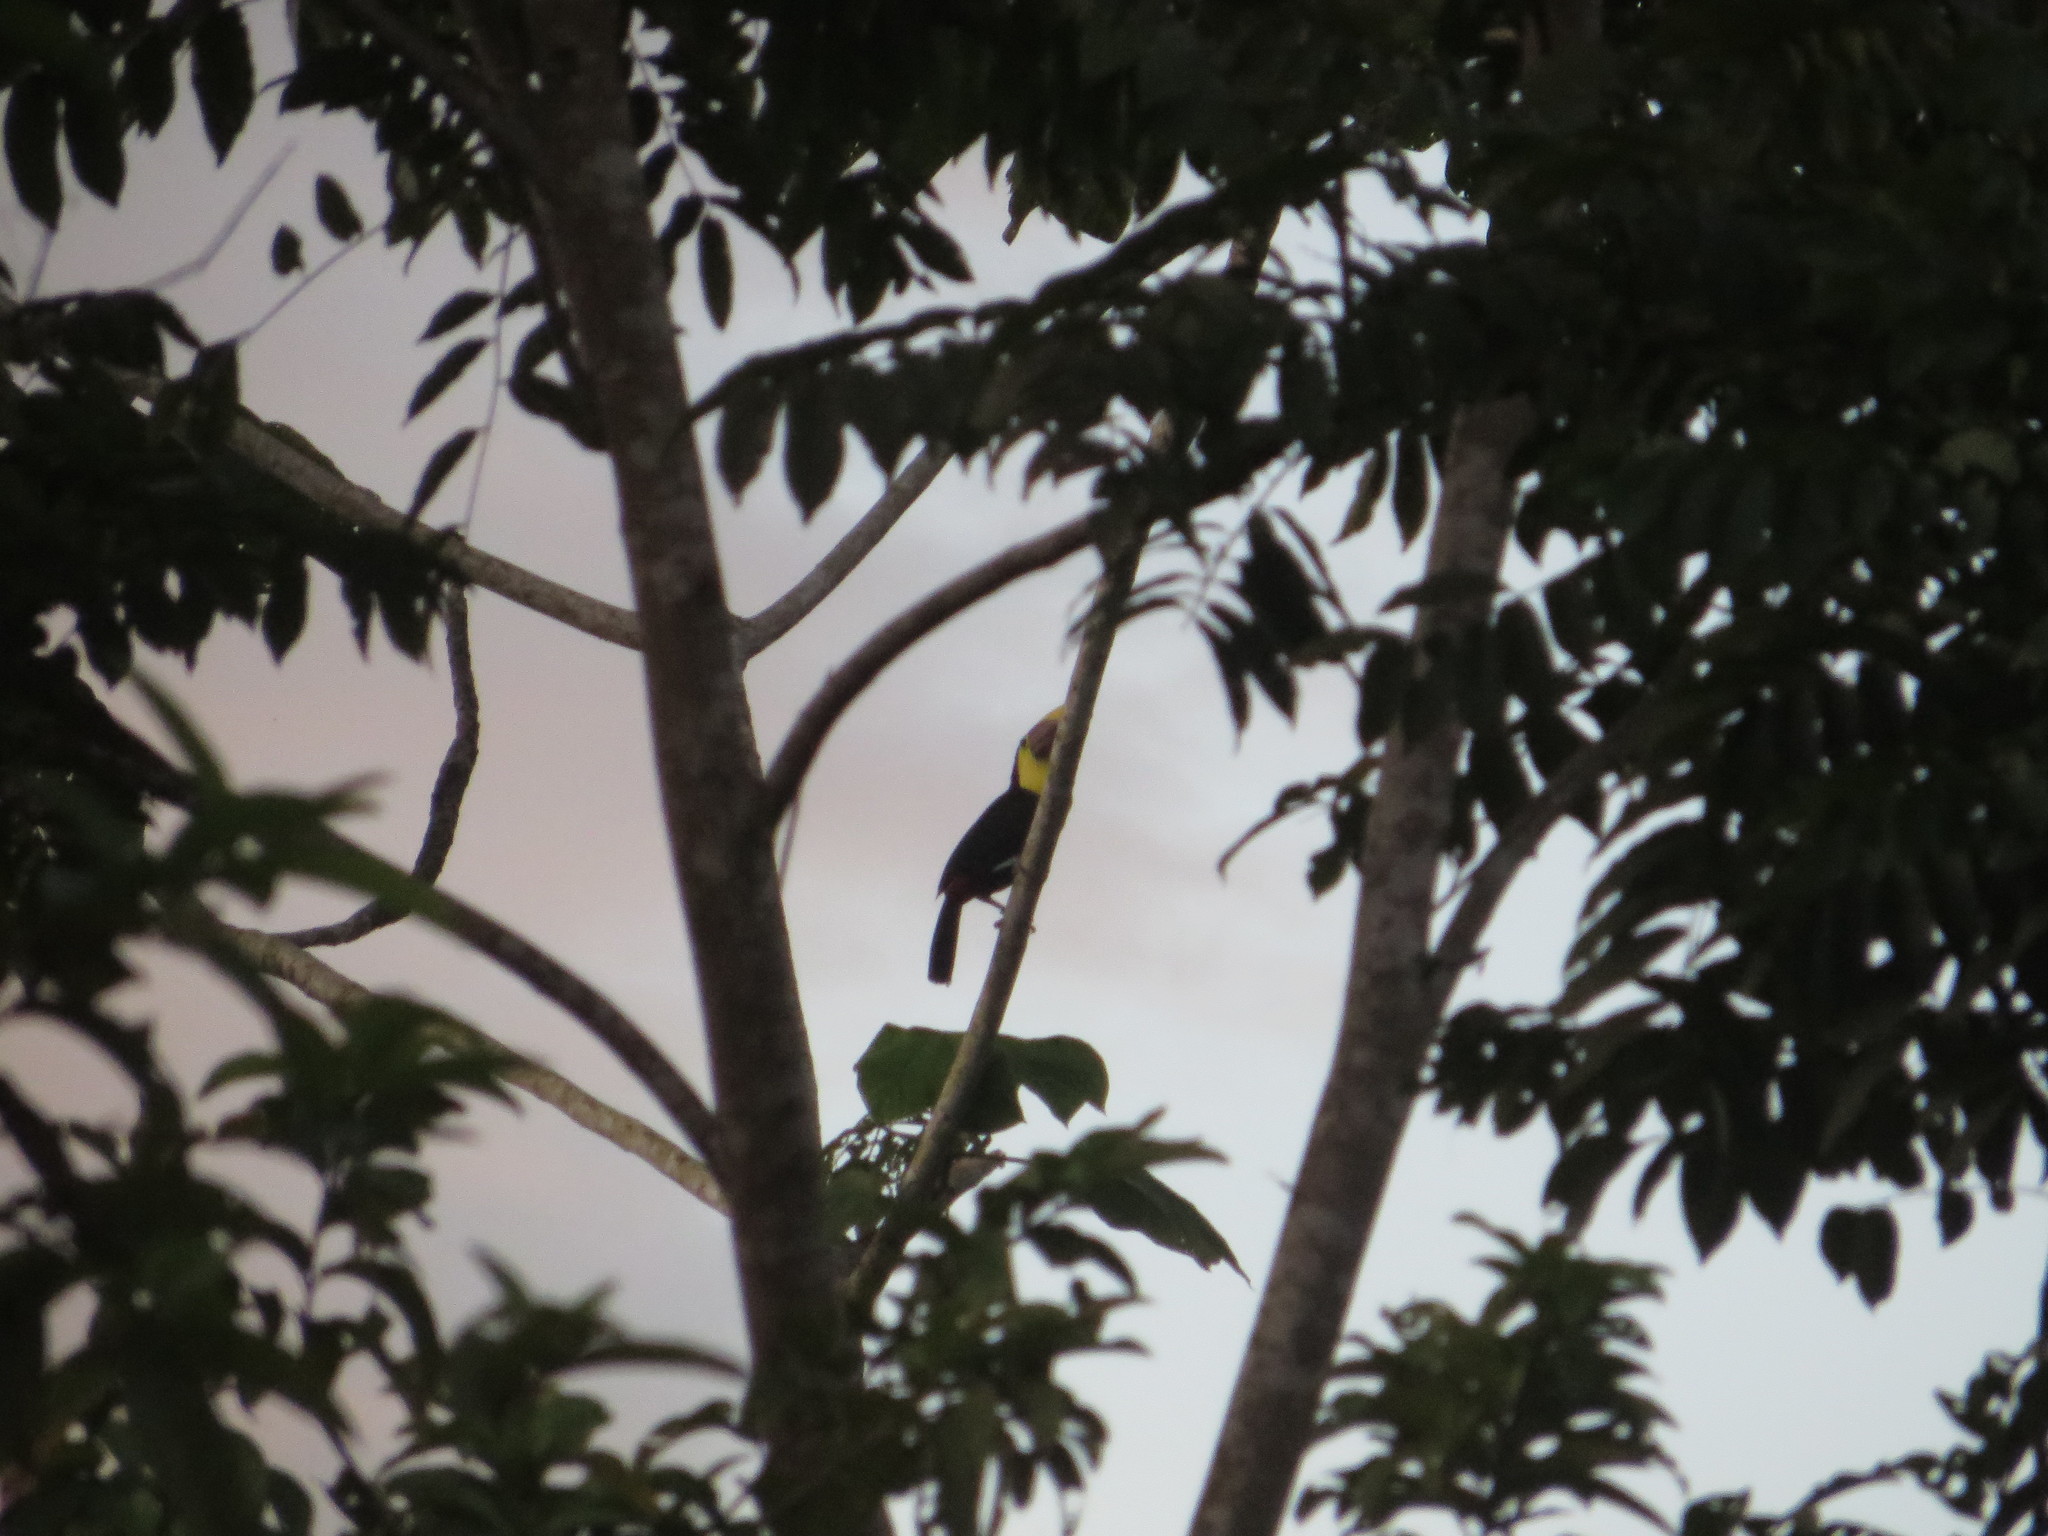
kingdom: Animalia
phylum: Chordata
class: Aves
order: Piciformes
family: Ramphastidae
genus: Ramphastos
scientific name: Ramphastos ambiguus
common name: Yellow-throated toucan
